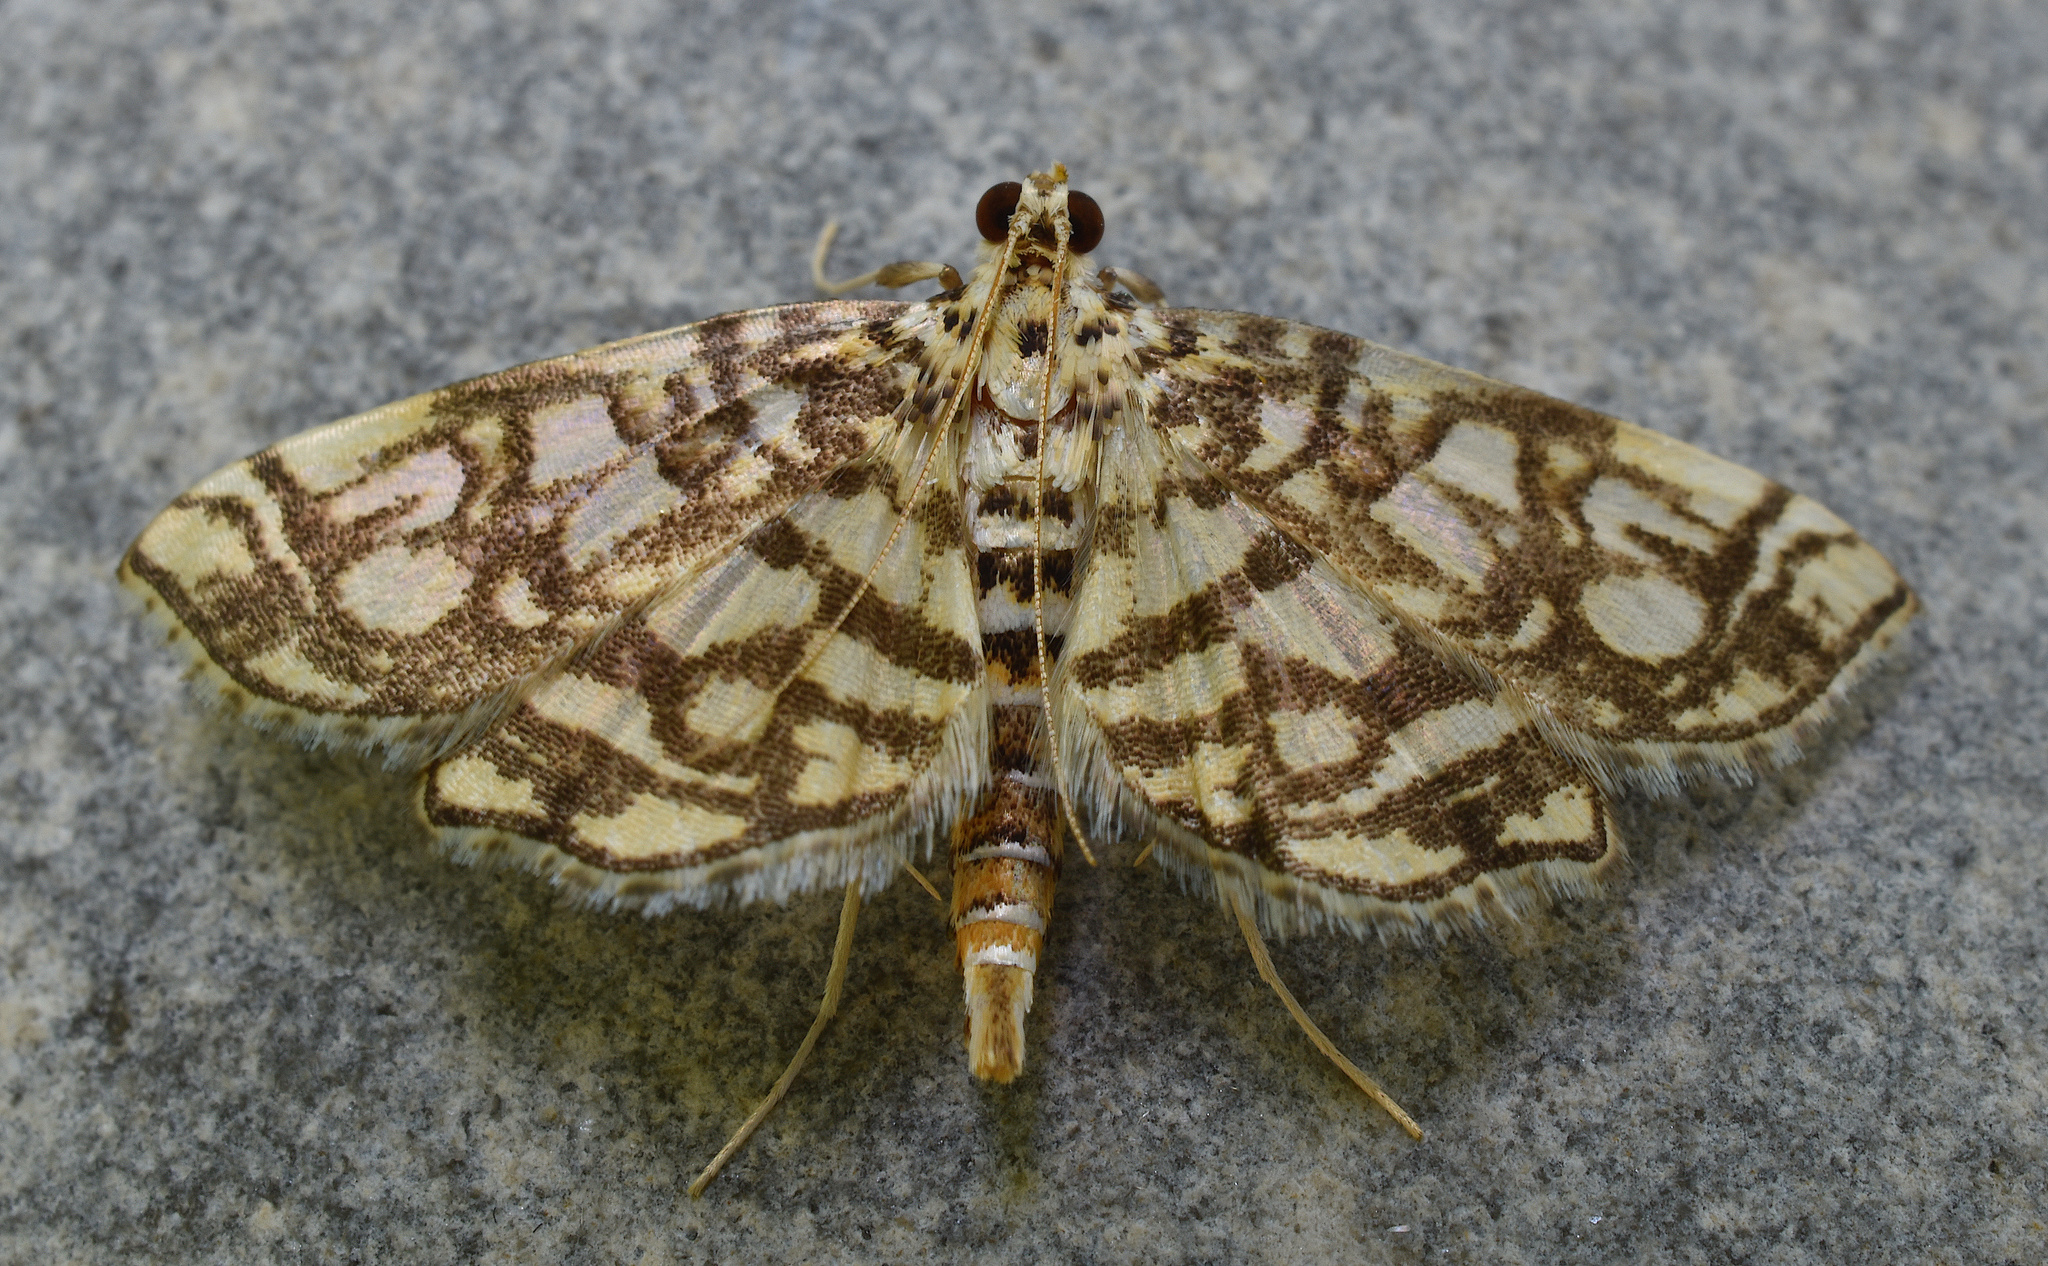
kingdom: Animalia
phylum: Arthropoda
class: Insecta
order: Lepidoptera
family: Crambidae
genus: Lygropia
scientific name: Lygropia rivulalis
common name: Bog lygropia moth
